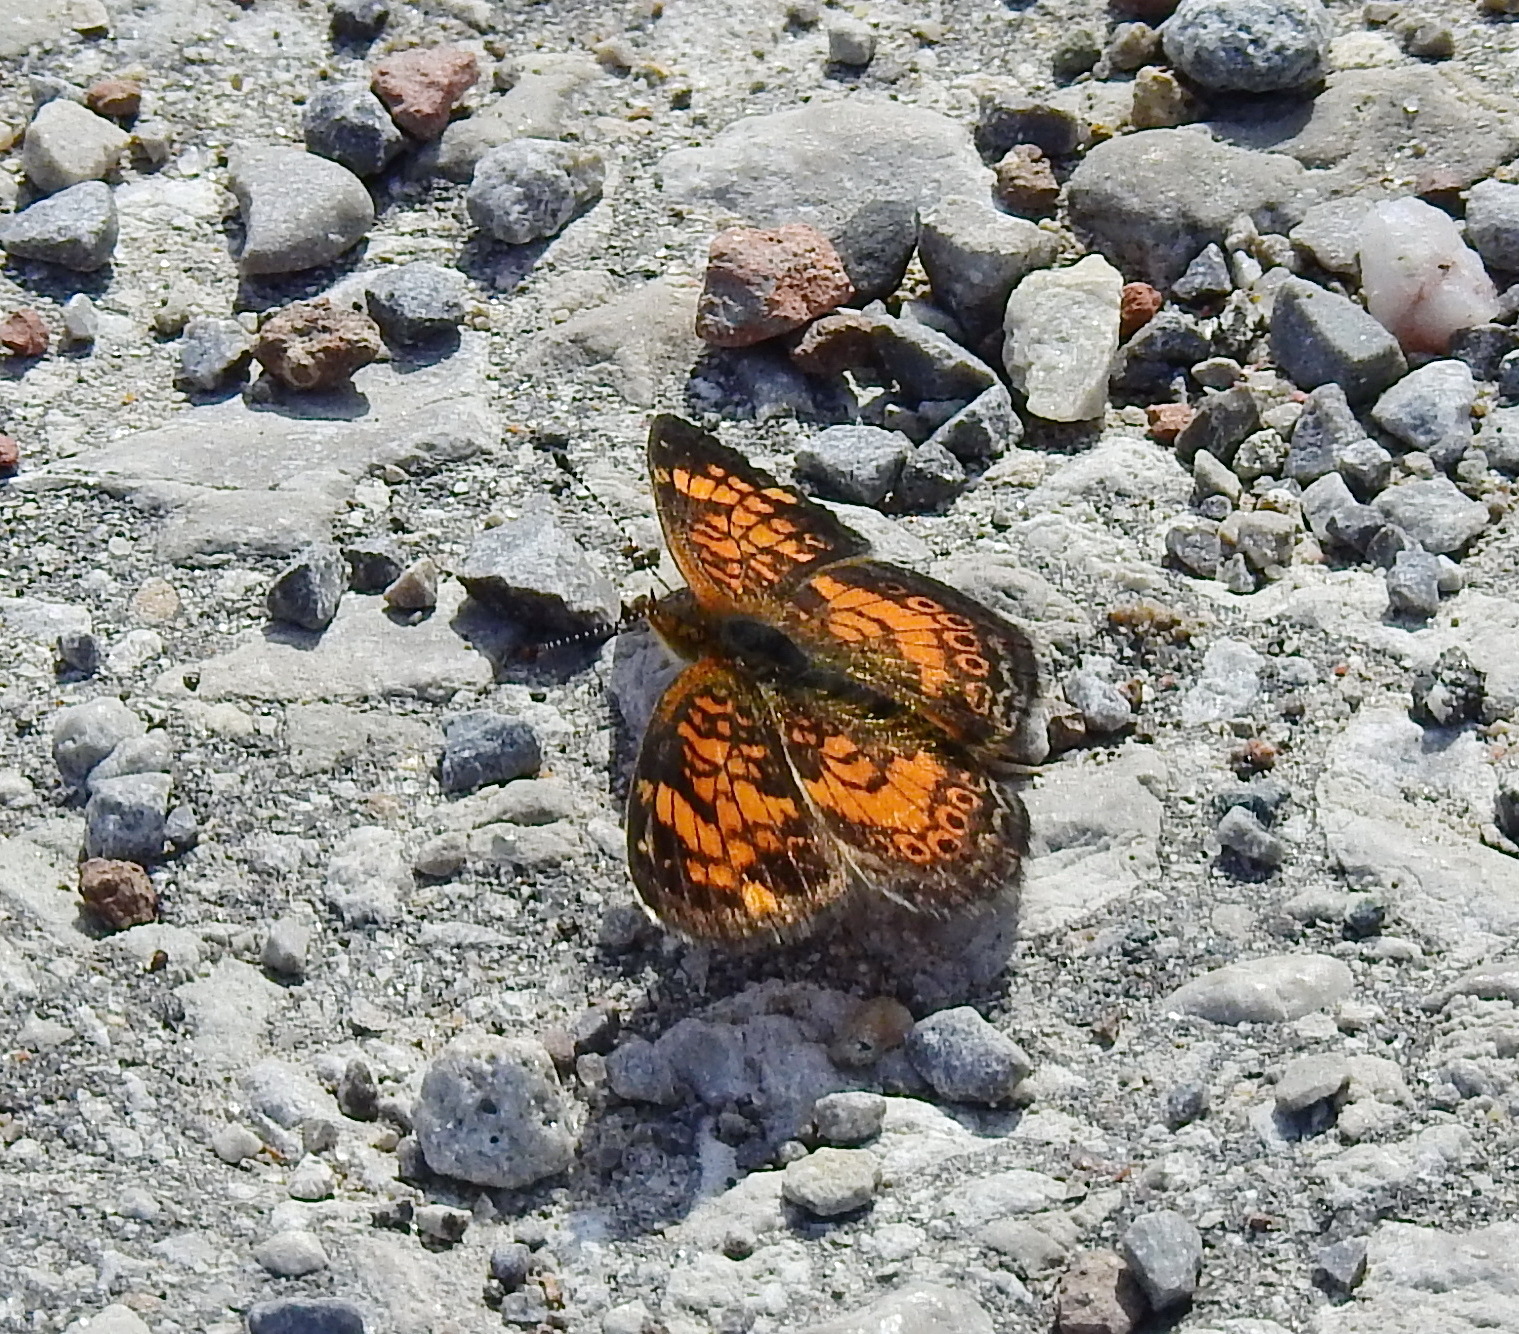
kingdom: Animalia
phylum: Arthropoda
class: Insecta
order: Lepidoptera
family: Nymphalidae
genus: Phyciodes
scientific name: Phyciodes tharos
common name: Pearl crescent
